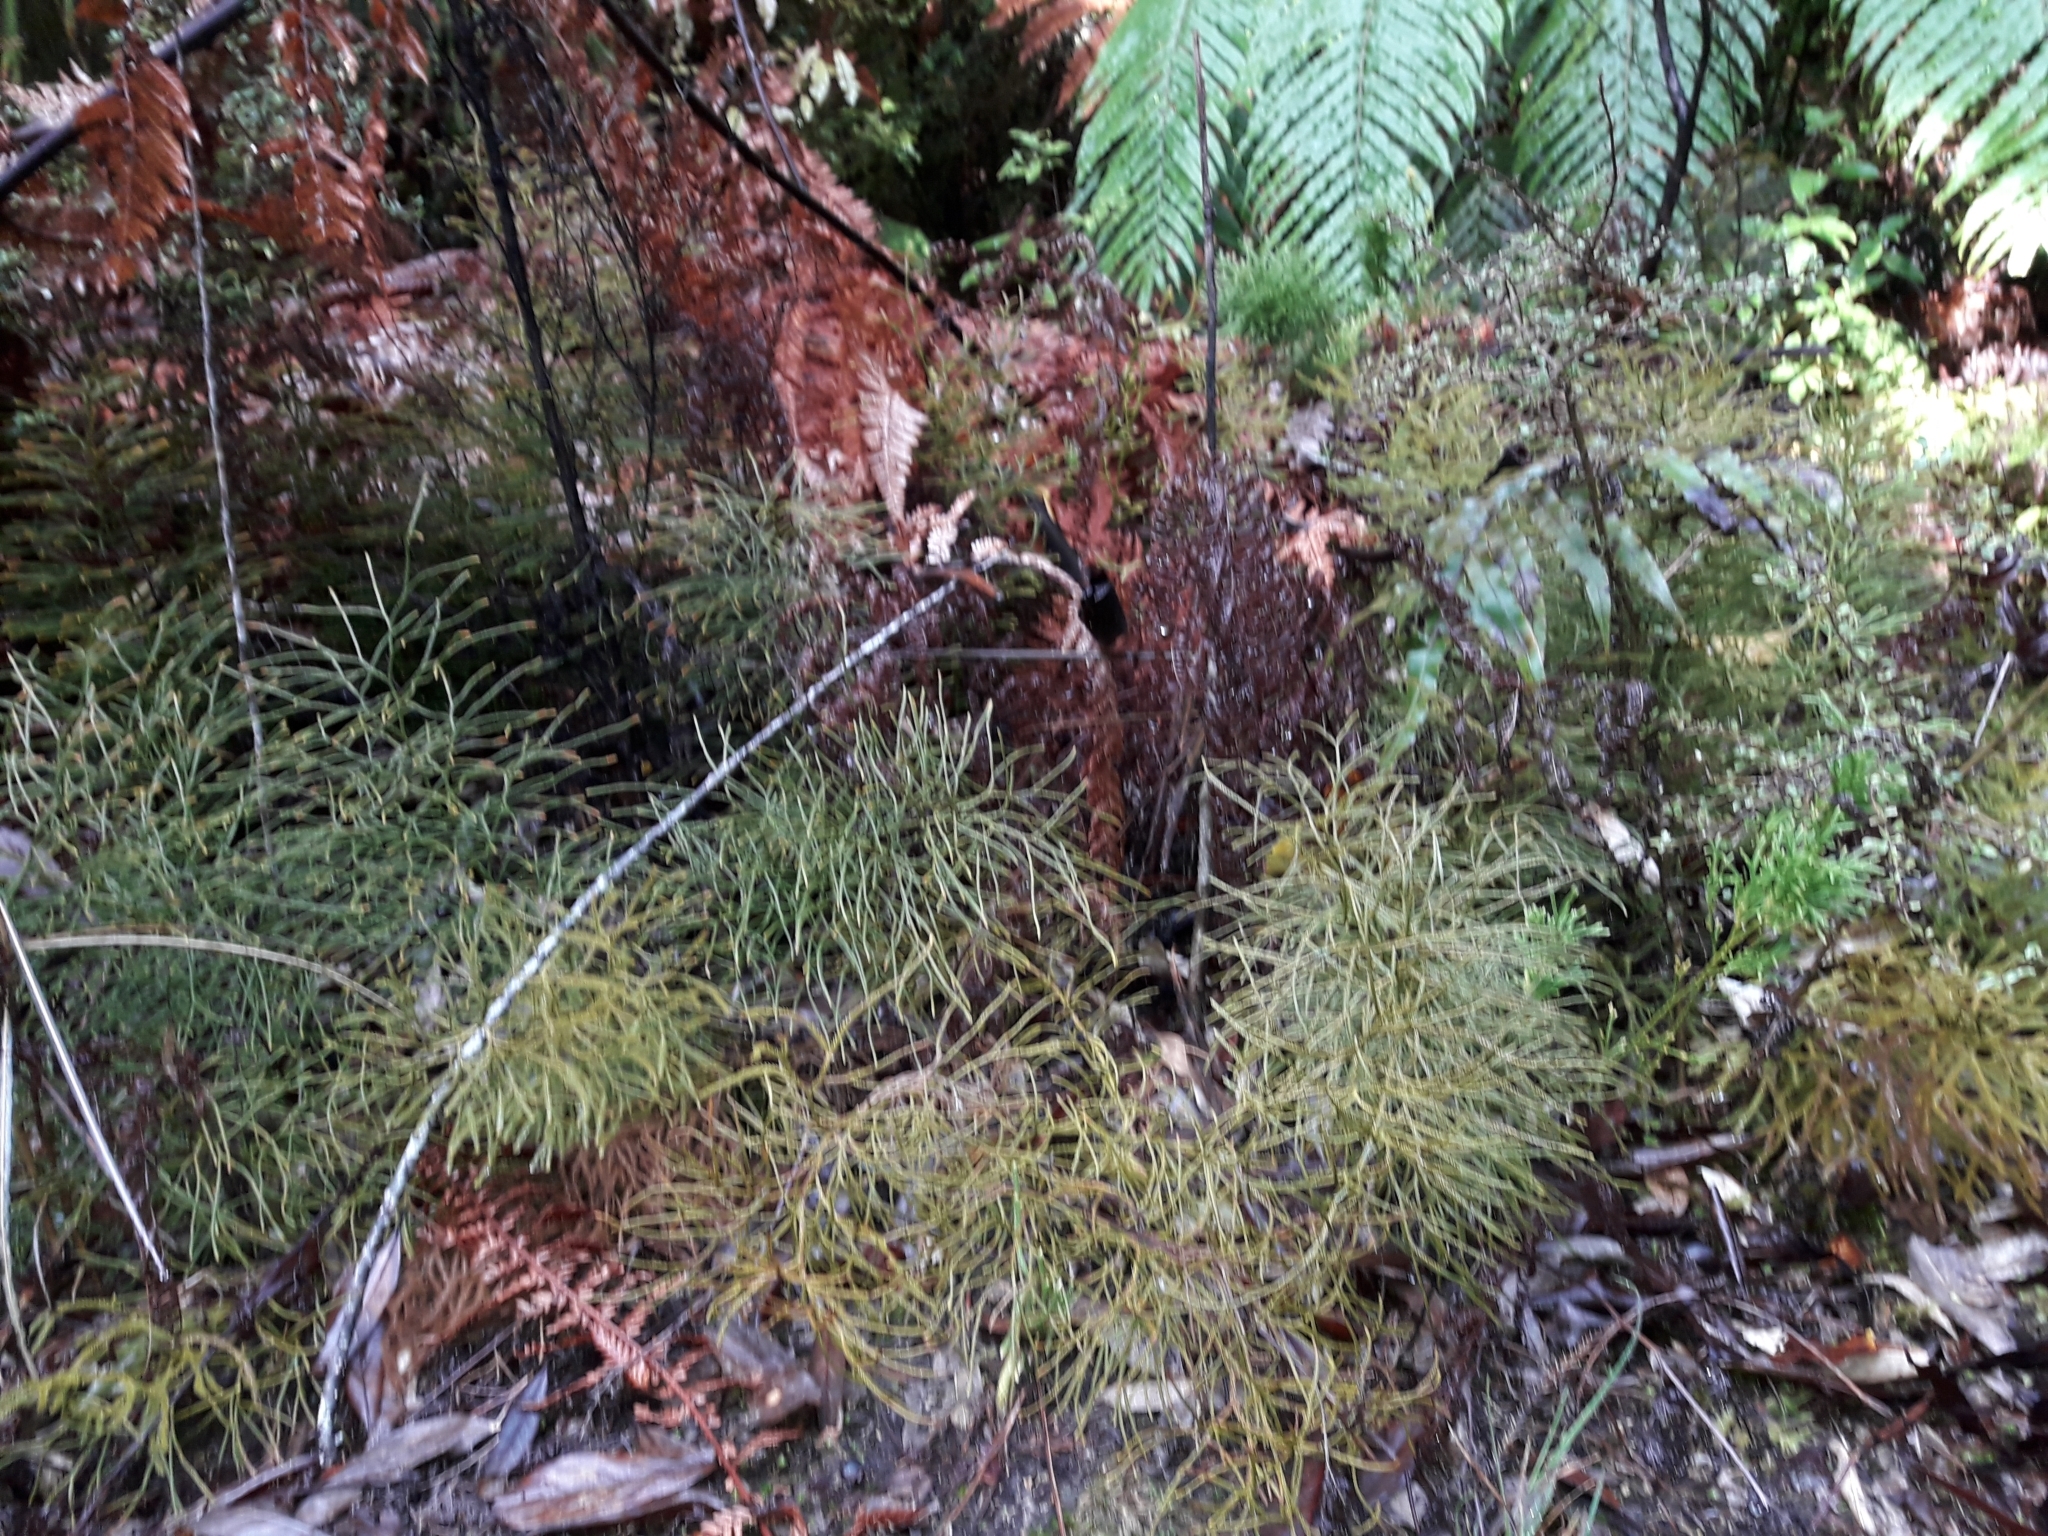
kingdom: Plantae
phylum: Tracheophyta
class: Lycopodiopsida
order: Lycopodiales
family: Lycopodiaceae
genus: Pseudolycopodium
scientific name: Pseudolycopodium densum
